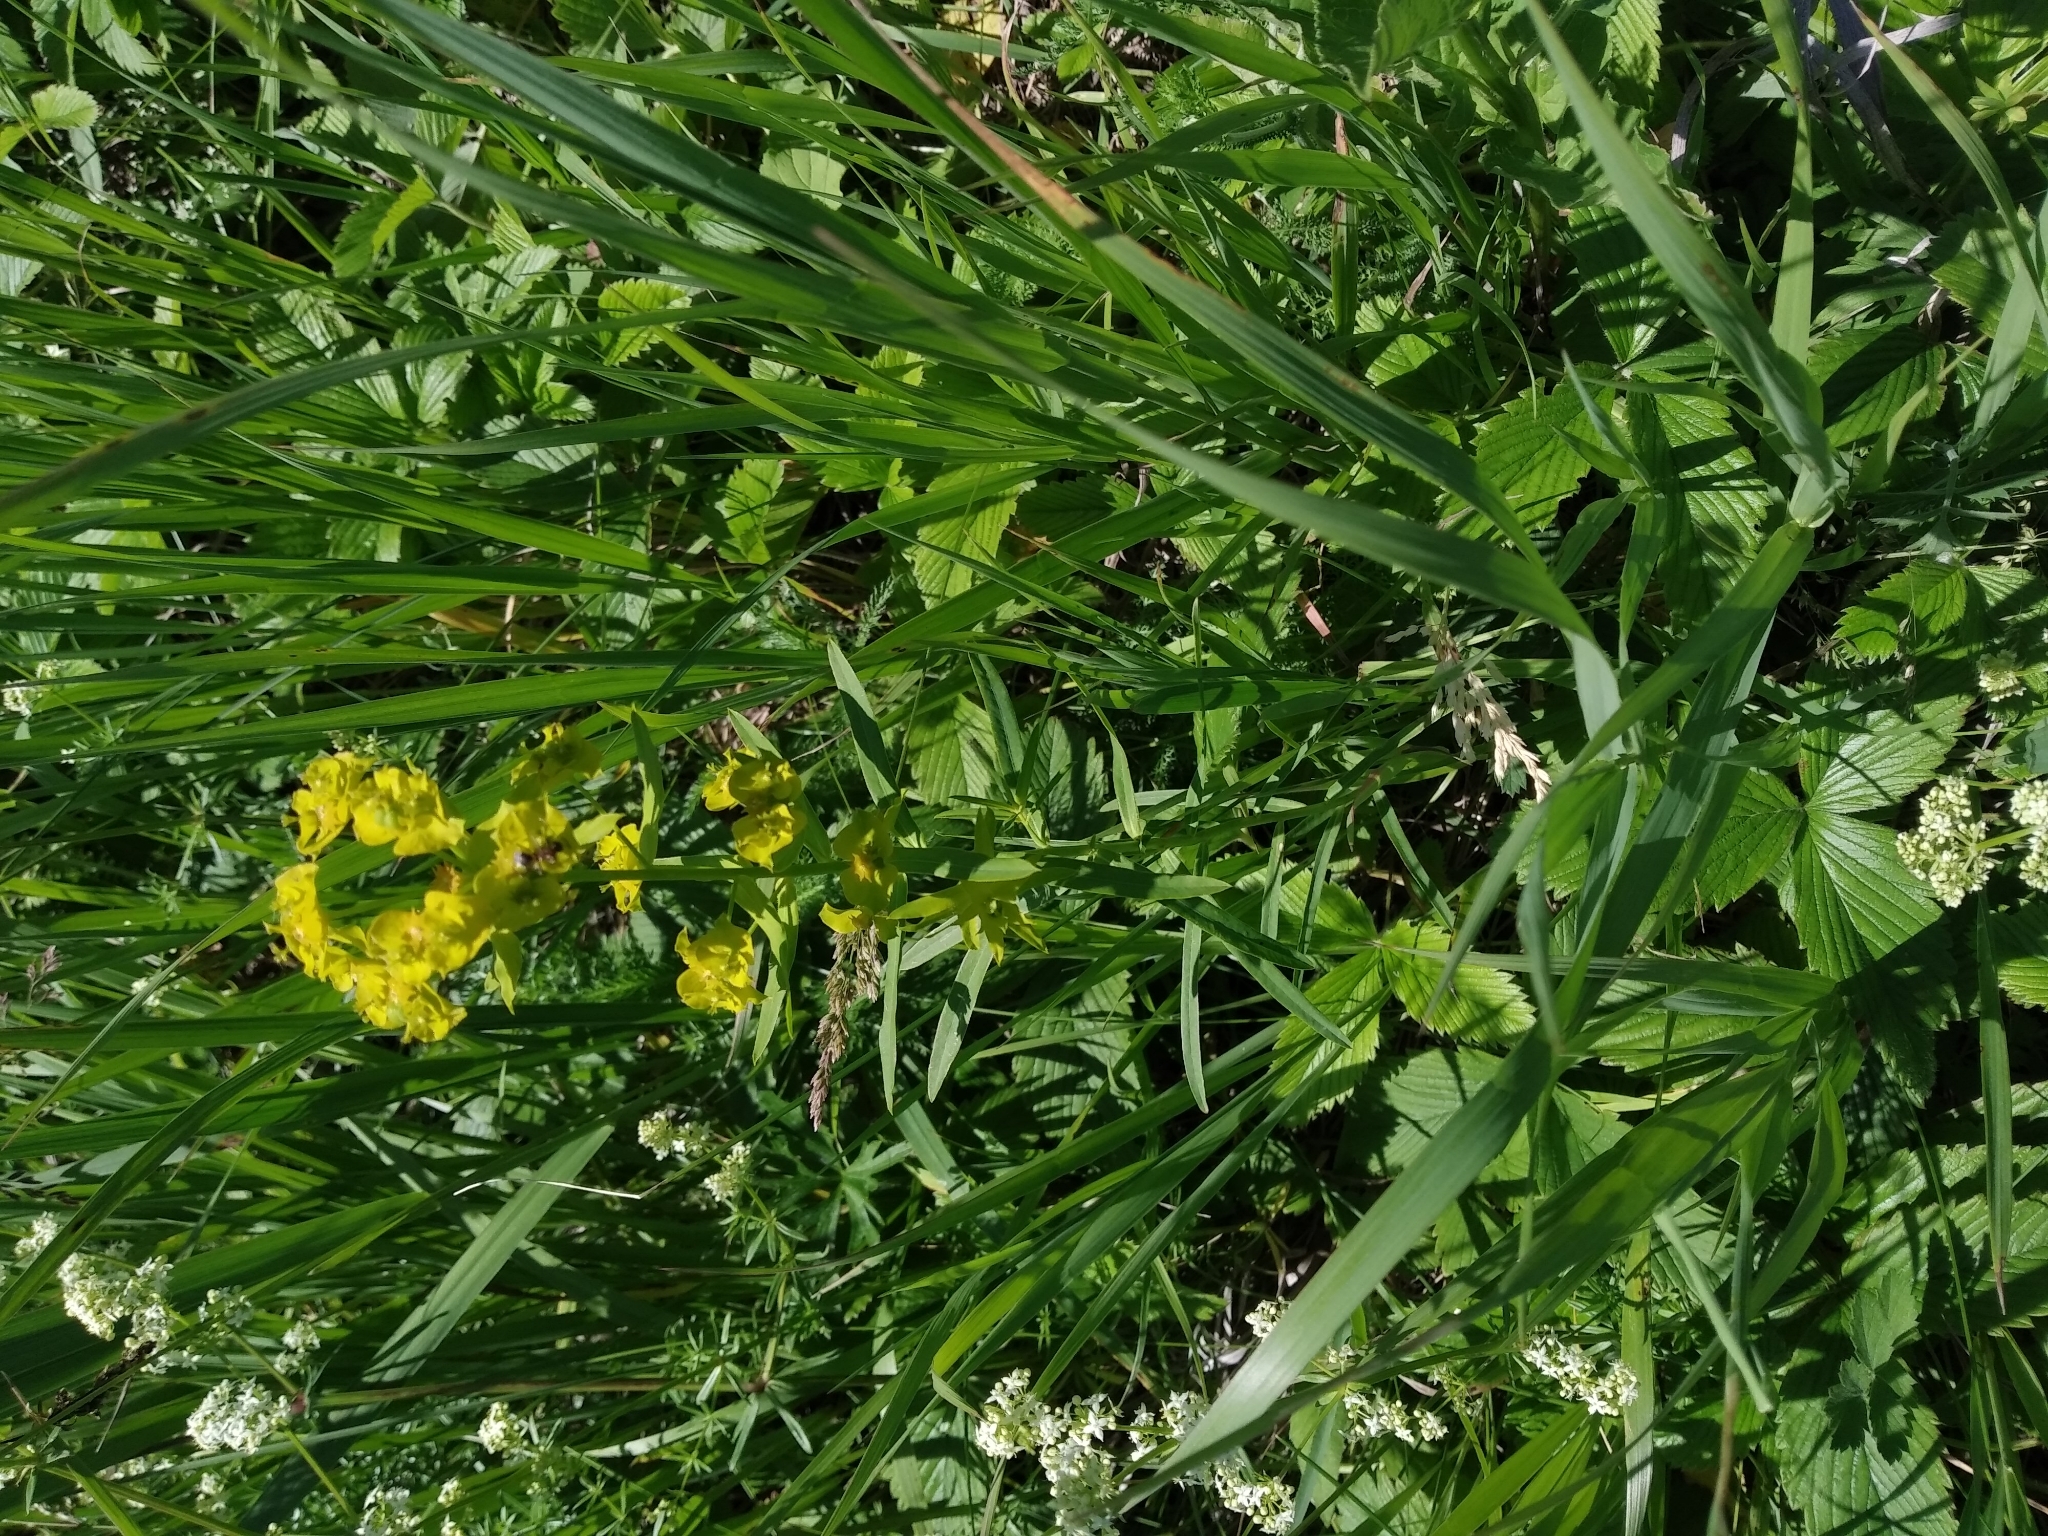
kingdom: Plantae
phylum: Tracheophyta
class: Magnoliopsida
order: Malpighiales
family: Euphorbiaceae
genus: Euphorbia
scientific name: Euphorbia virgata
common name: Leafy spurge
